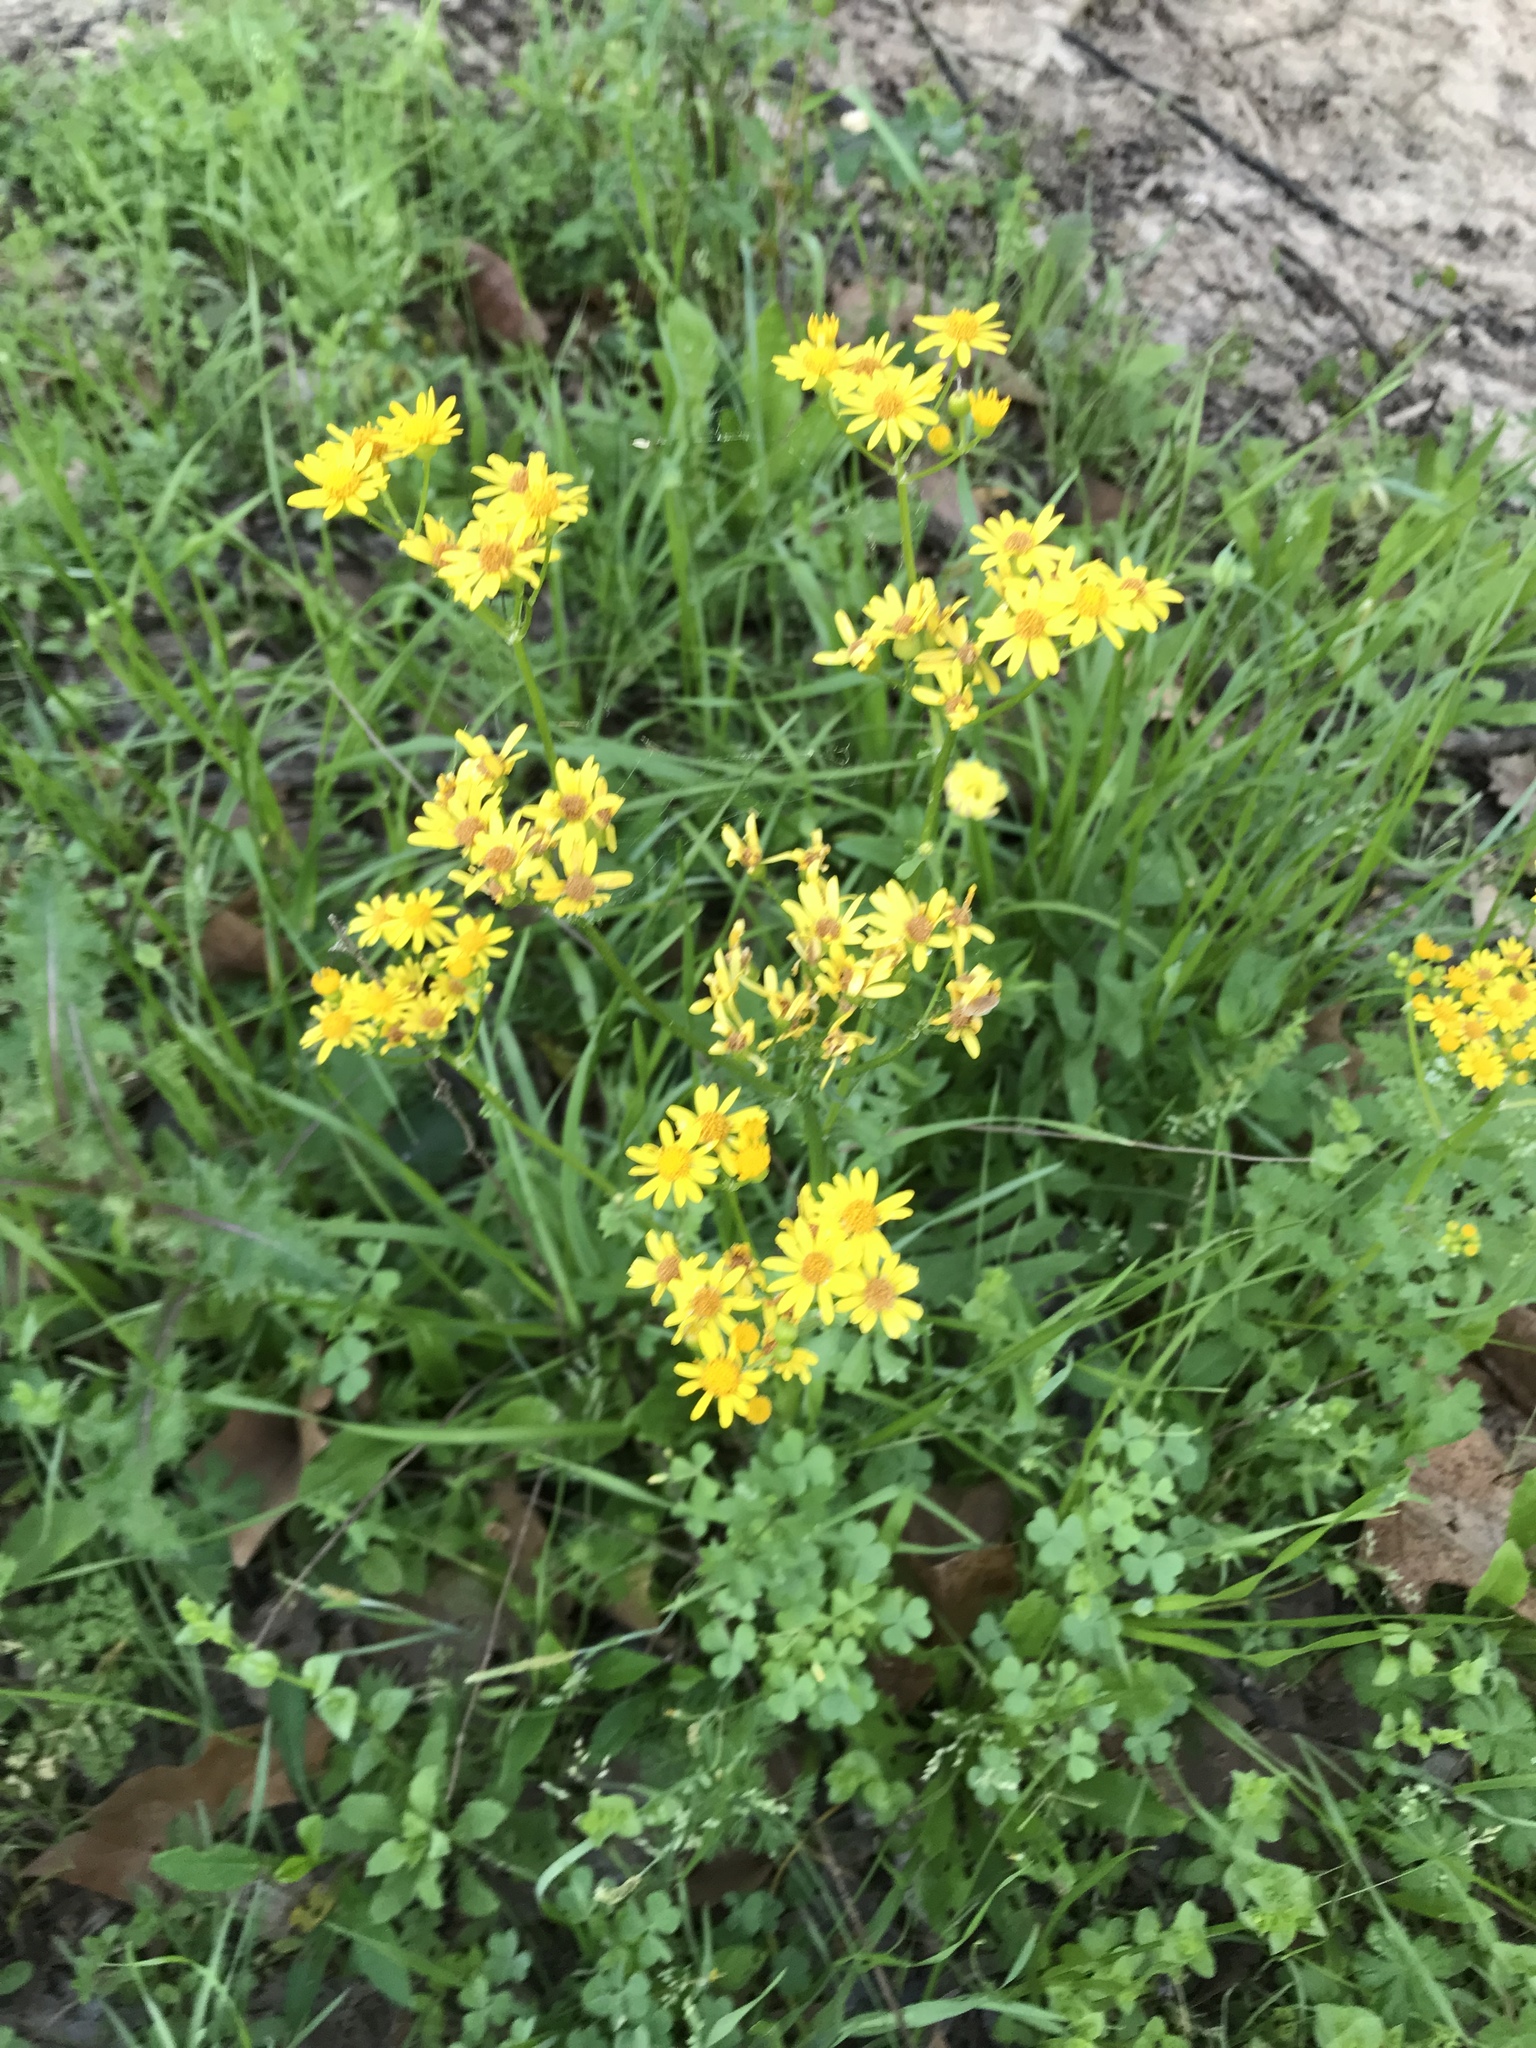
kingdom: Plantae
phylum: Tracheophyta
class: Magnoliopsida
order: Asterales
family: Asteraceae
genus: Packera
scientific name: Packera glabella
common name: Butterweed
